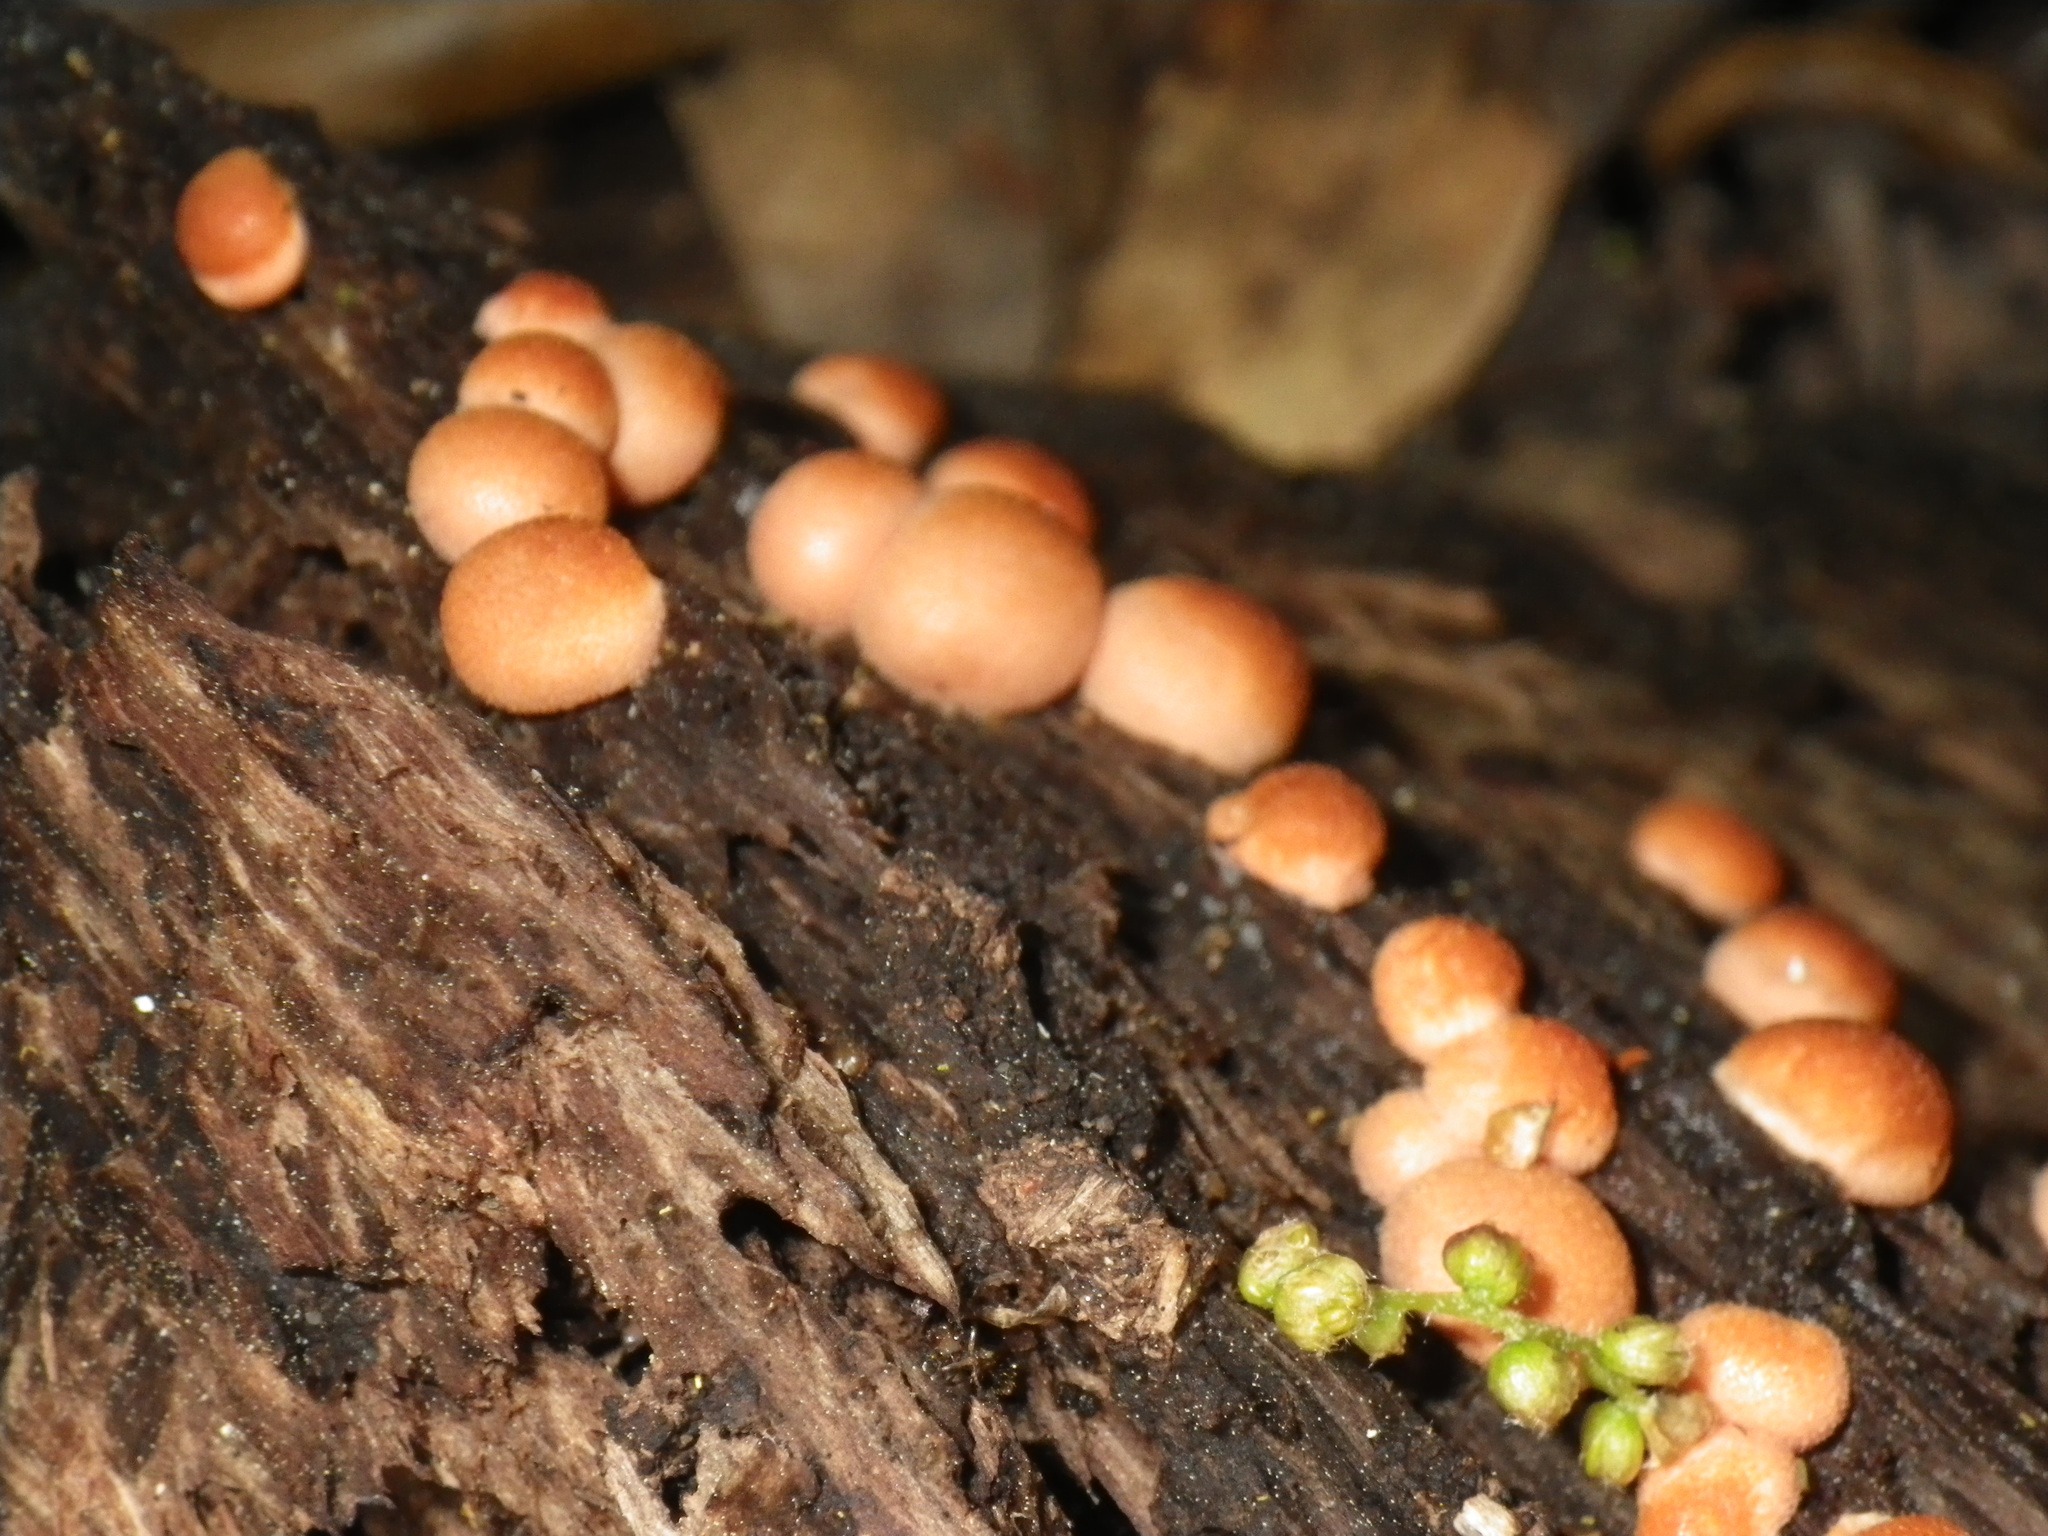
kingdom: Protozoa
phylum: Mycetozoa
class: Myxomycetes
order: Cribrariales
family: Tubiferaceae
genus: Lycogala
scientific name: Lycogala epidendrum
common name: Wolf's milk
